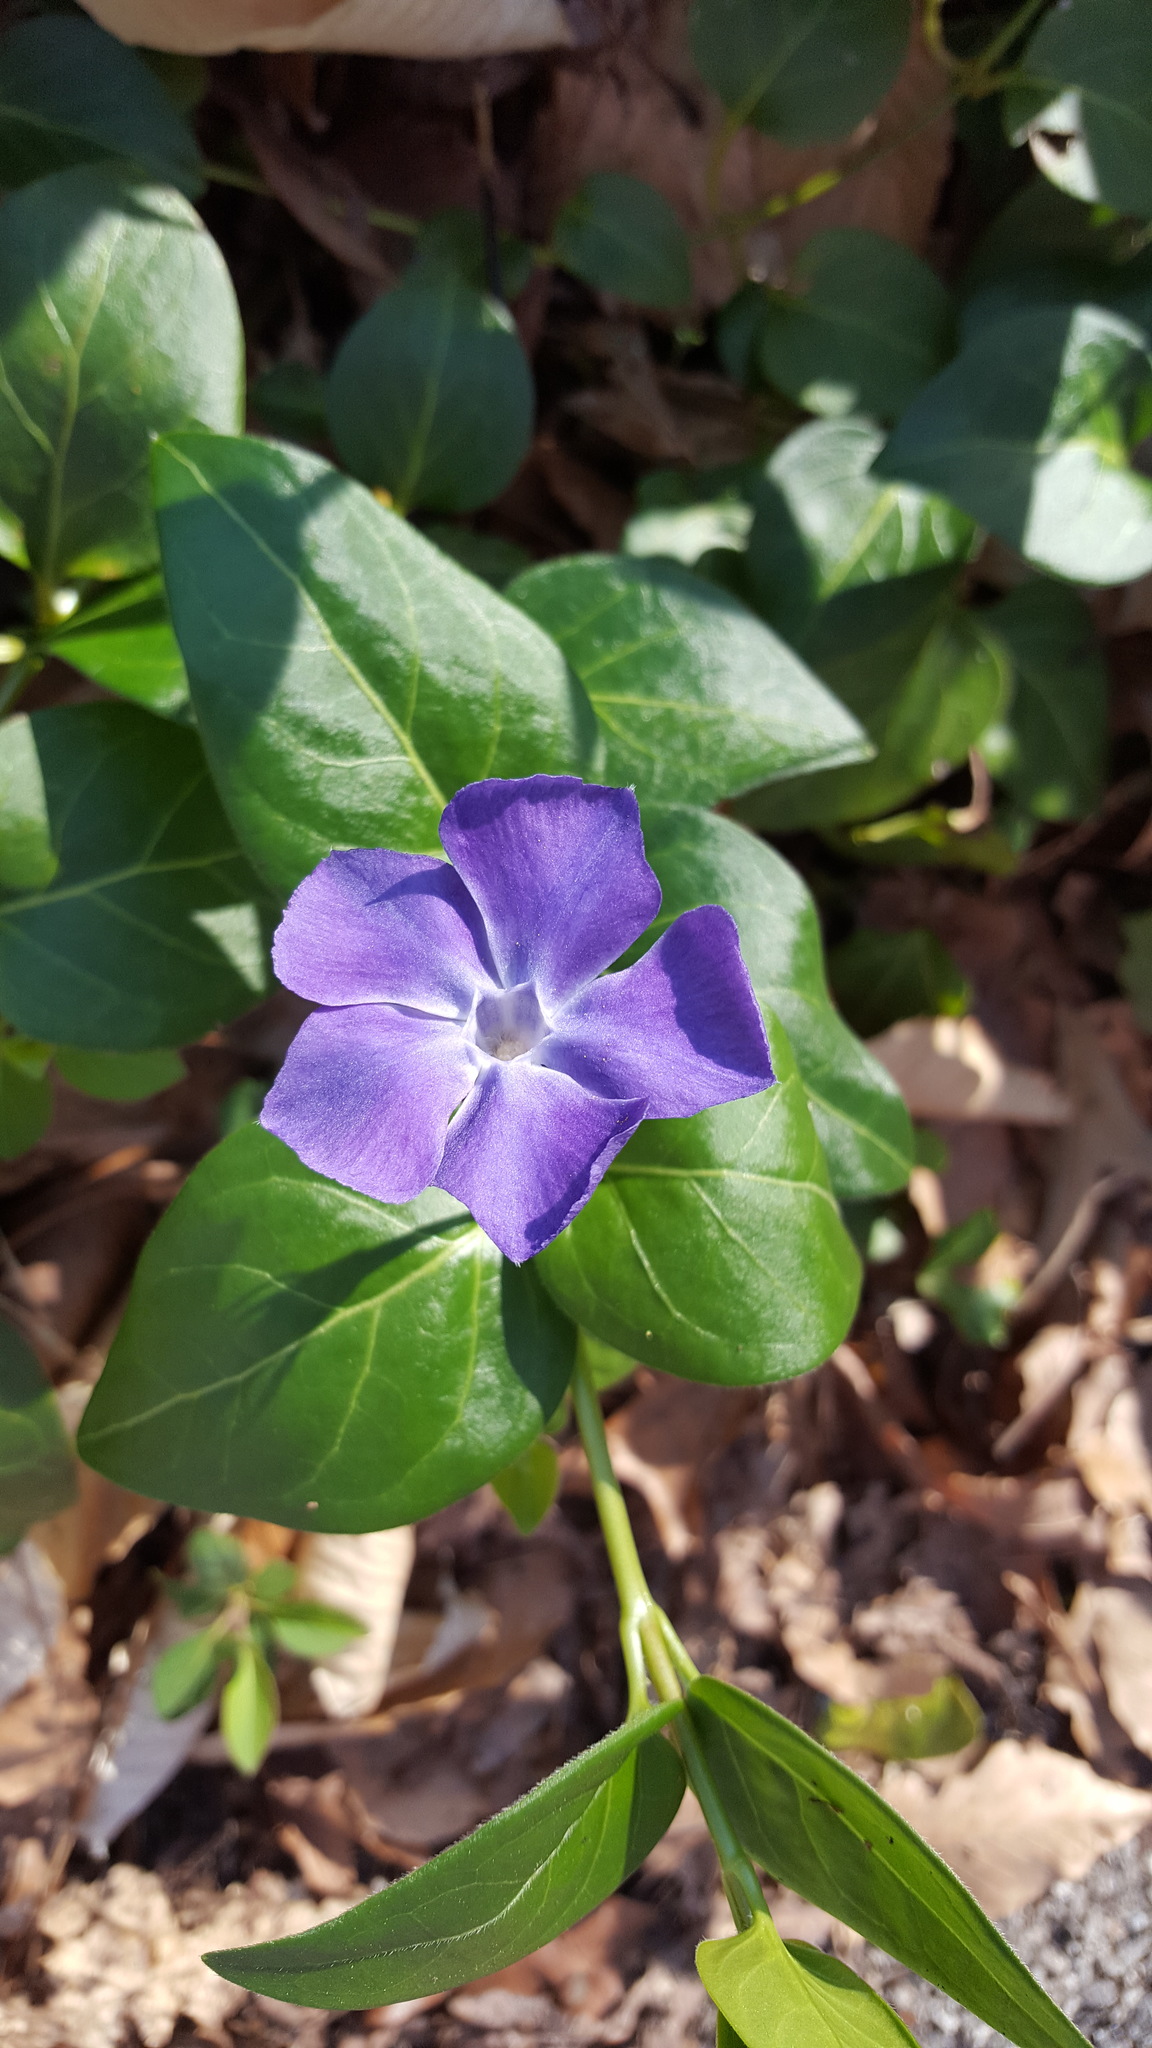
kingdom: Plantae
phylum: Tracheophyta
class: Magnoliopsida
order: Gentianales
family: Apocynaceae
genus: Vinca
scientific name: Vinca major
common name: Greater periwinkle
